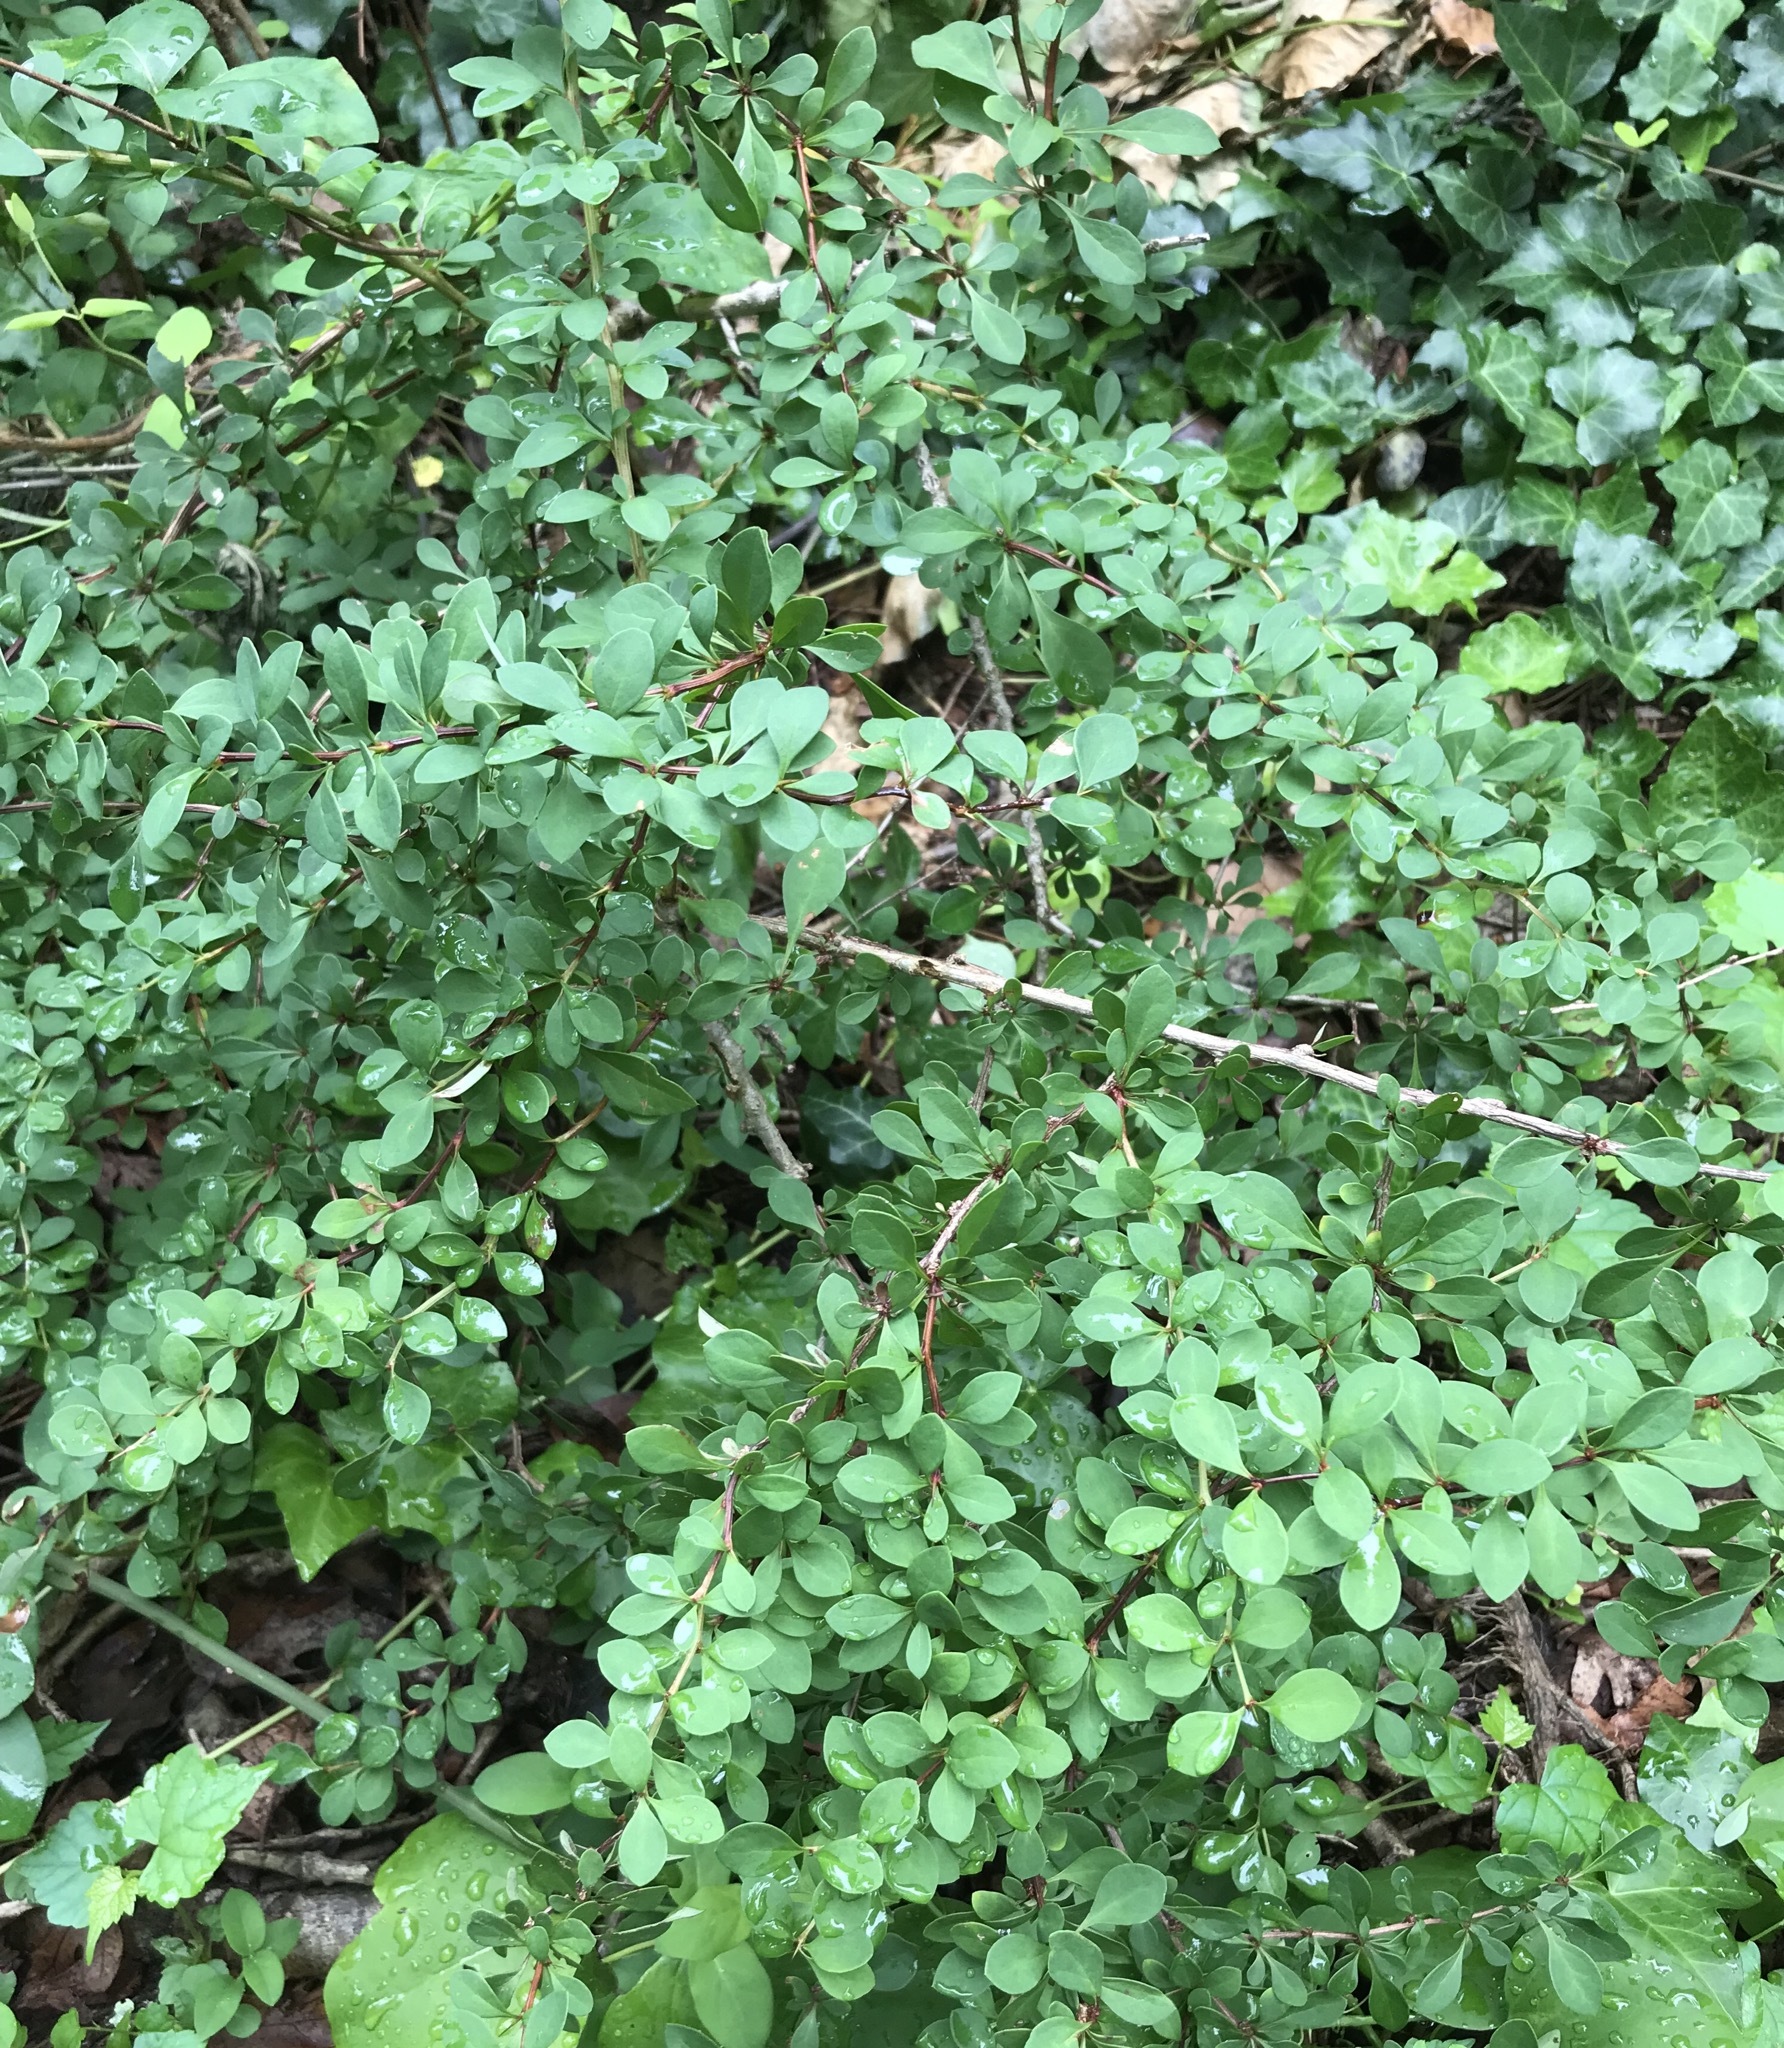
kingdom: Plantae
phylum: Tracheophyta
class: Magnoliopsida
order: Ranunculales
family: Berberidaceae
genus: Berberis
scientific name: Berberis thunbergii
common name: Japanese barberry
